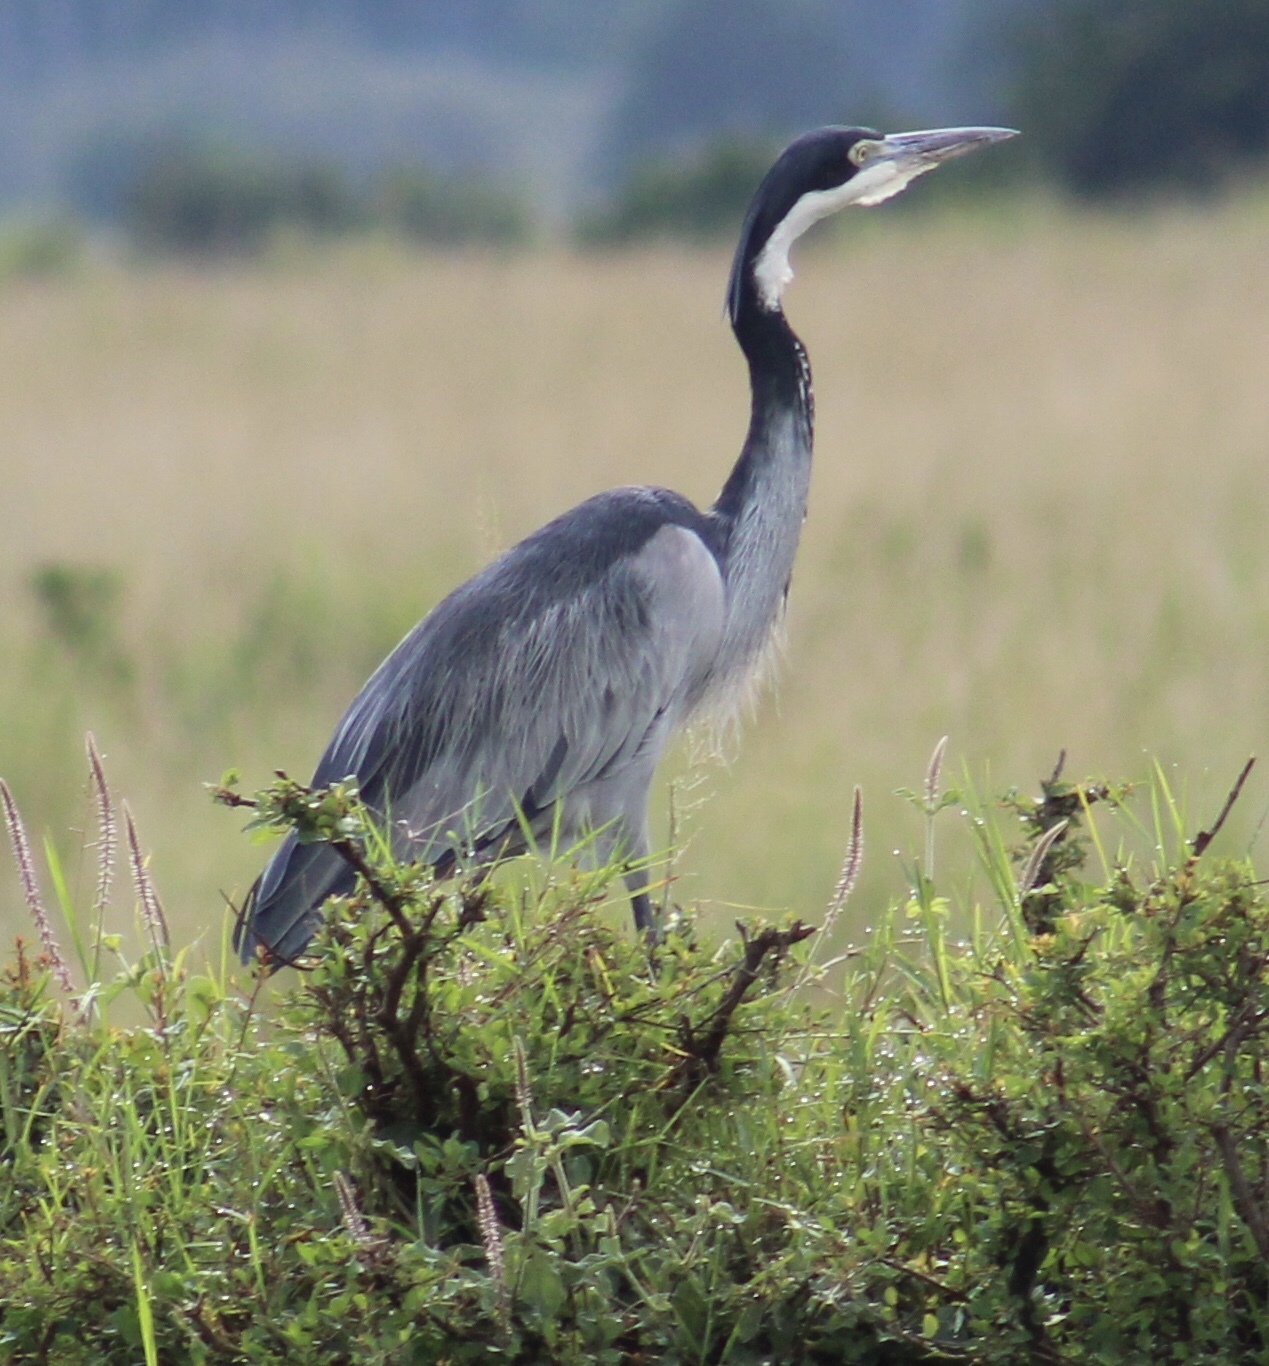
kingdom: Animalia
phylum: Chordata
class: Aves
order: Pelecaniformes
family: Ardeidae
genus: Ardea
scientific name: Ardea melanocephala
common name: Black-headed heron
